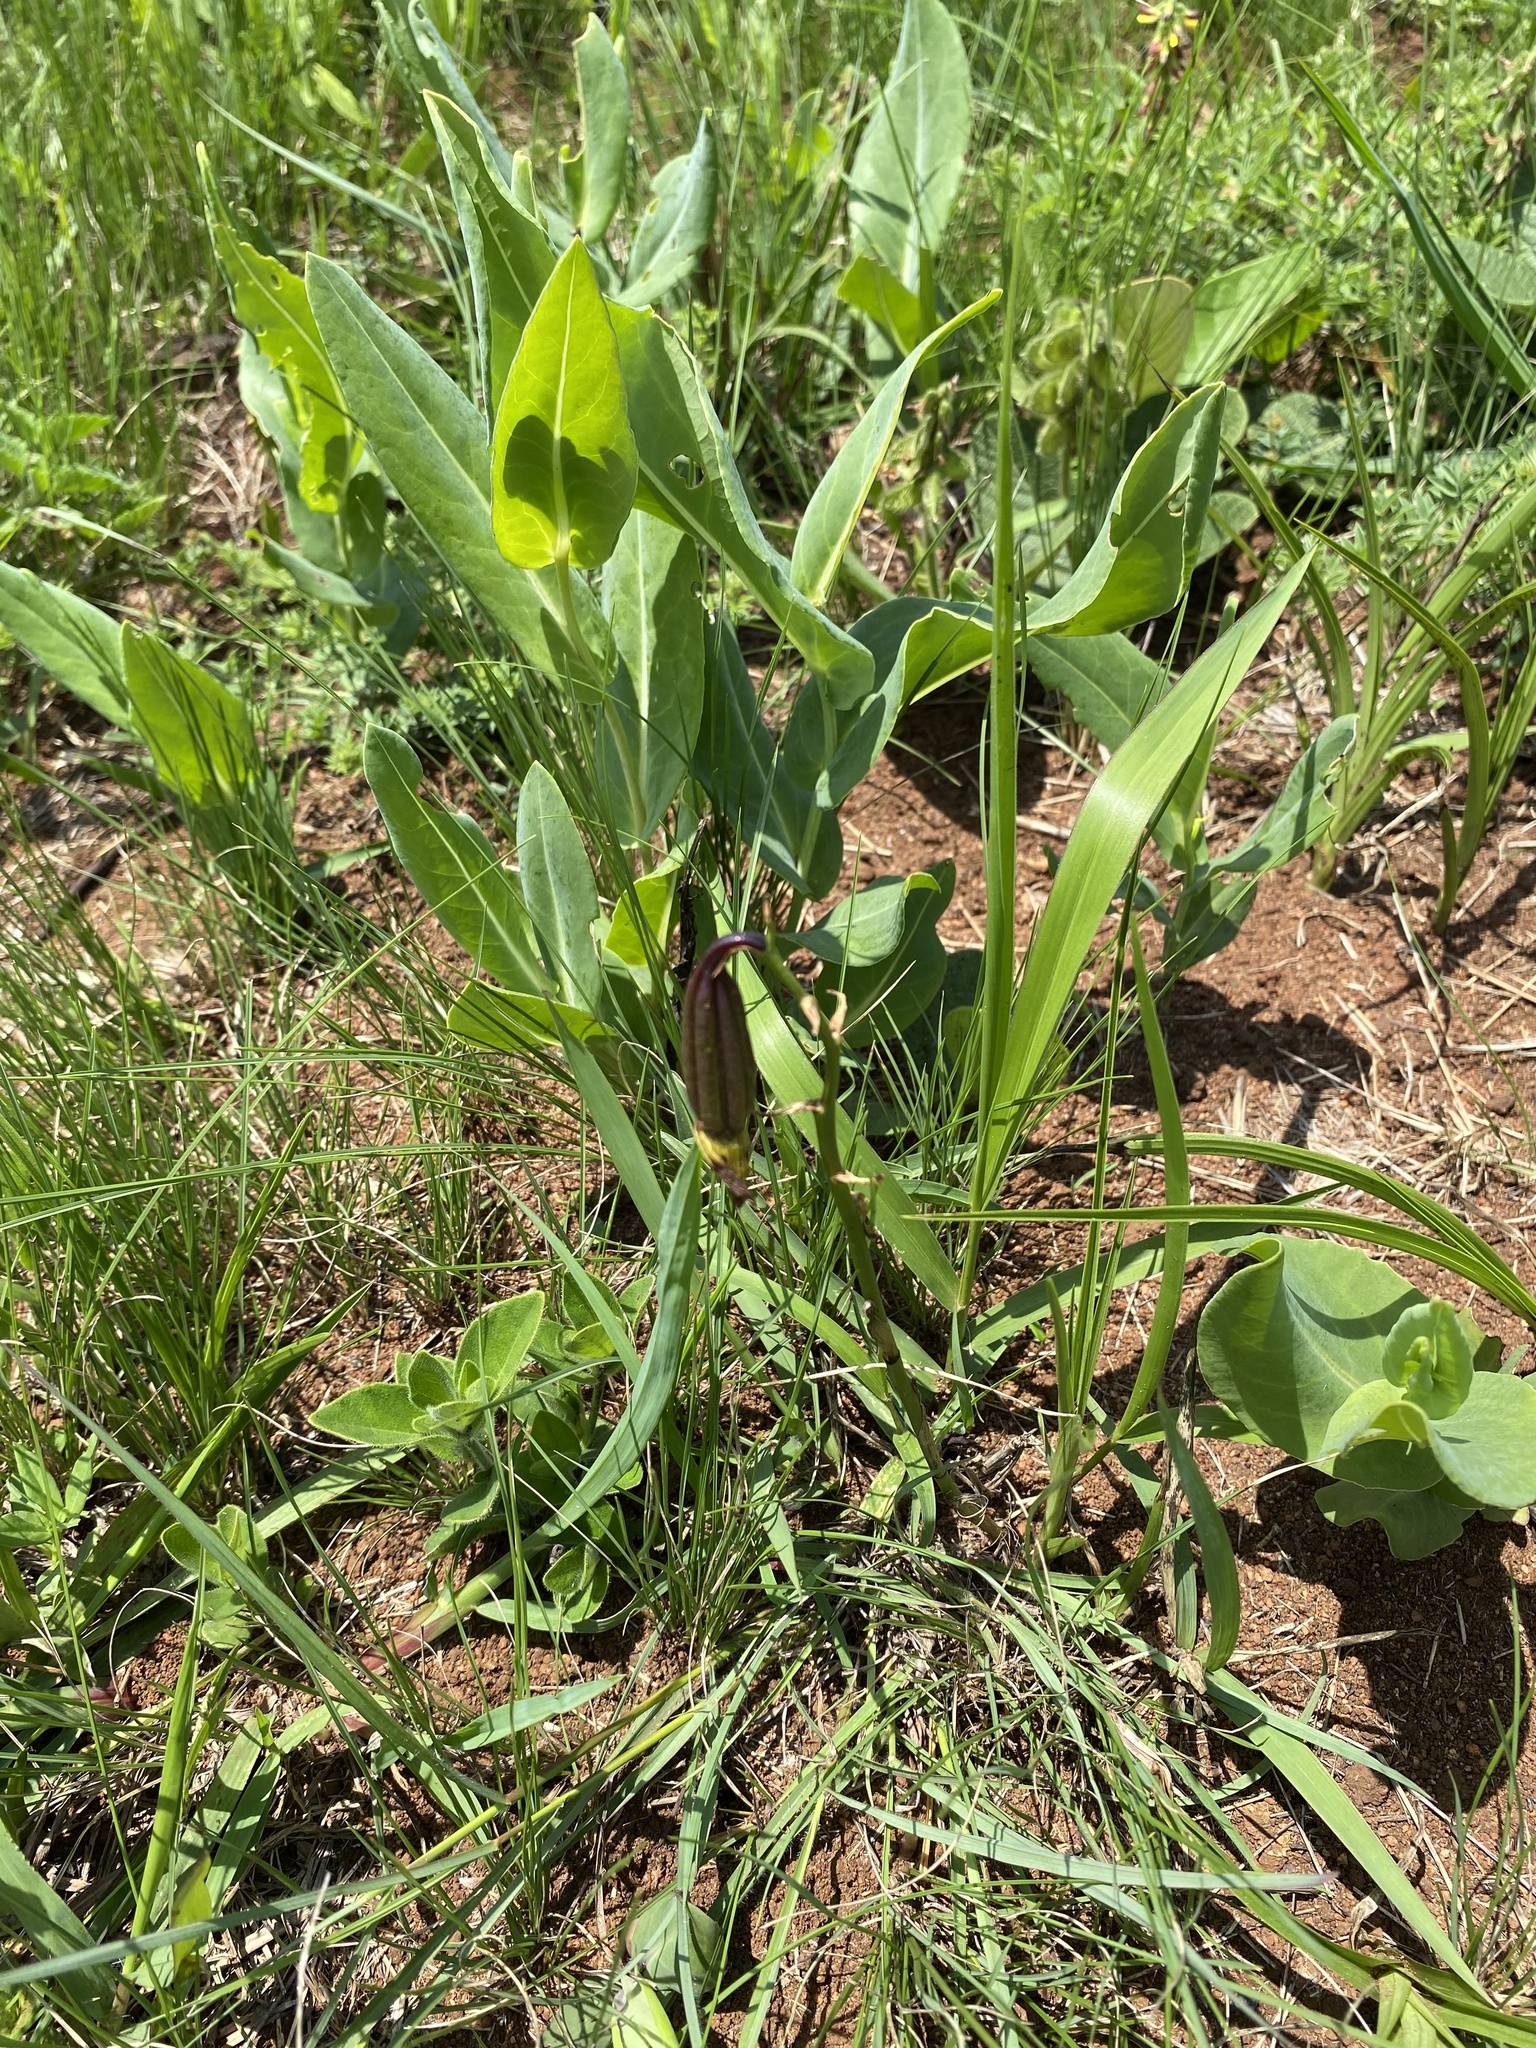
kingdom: Plantae
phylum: Tracheophyta
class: Liliopsida
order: Asparagales
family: Orchidaceae
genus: Eulophia
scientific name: Eulophia parviflora
